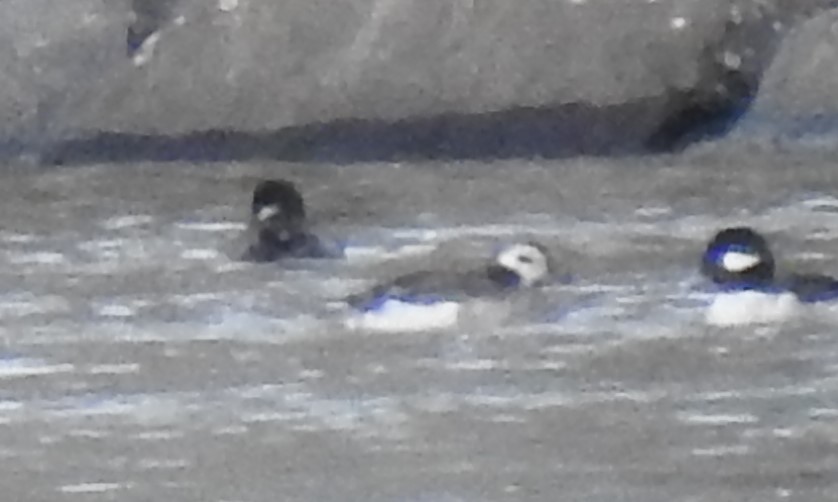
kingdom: Animalia
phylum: Chordata
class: Aves
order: Anseriformes
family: Anatidae
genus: Clangula
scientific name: Clangula hyemalis
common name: Long-tailed duck
